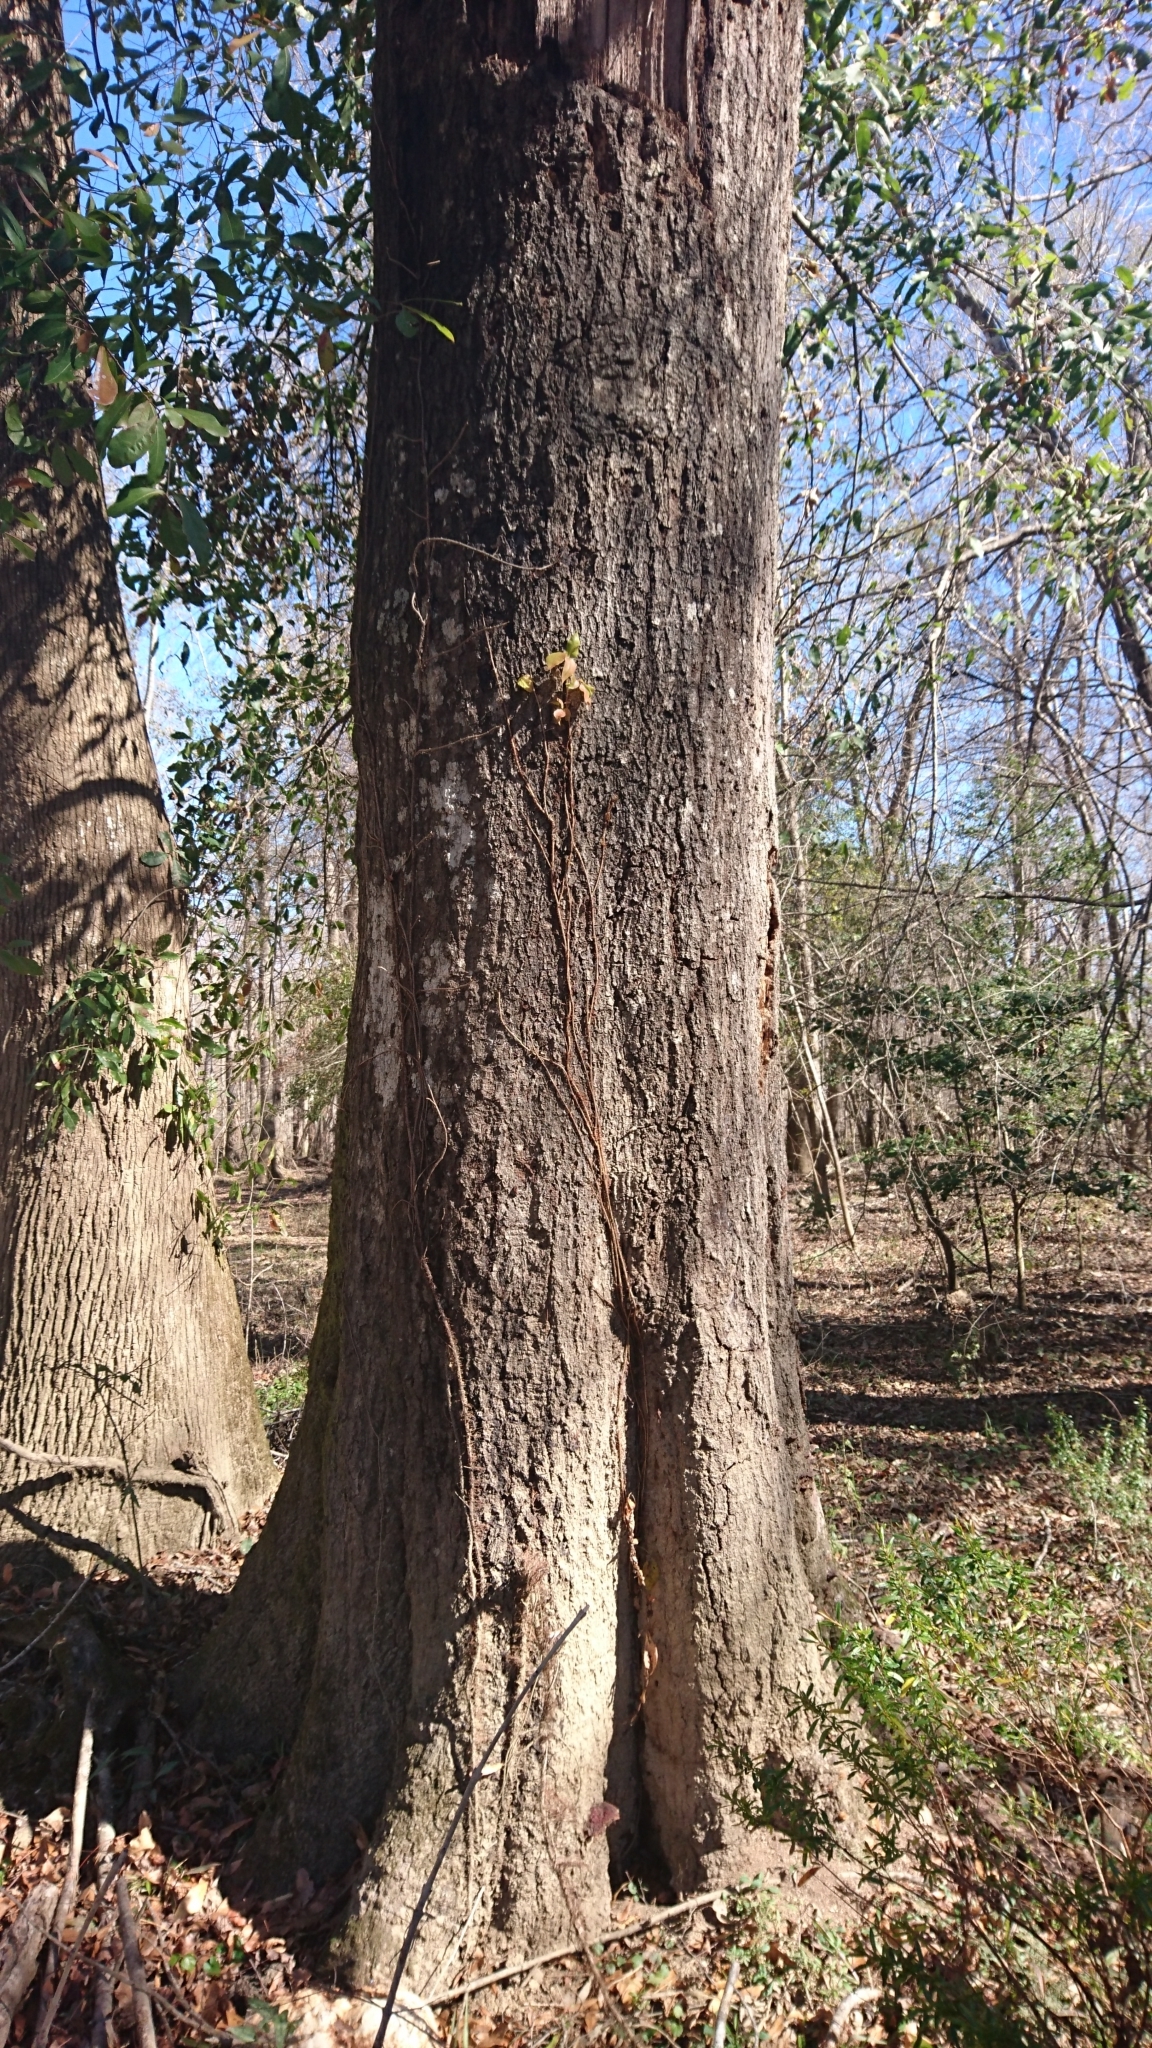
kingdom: Plantae
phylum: Tracheophyta
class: Magnoliopsida
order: Cornales
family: Nyssaceae
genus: Nyssa
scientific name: Nyssa biflora
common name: Swamp blackgum
